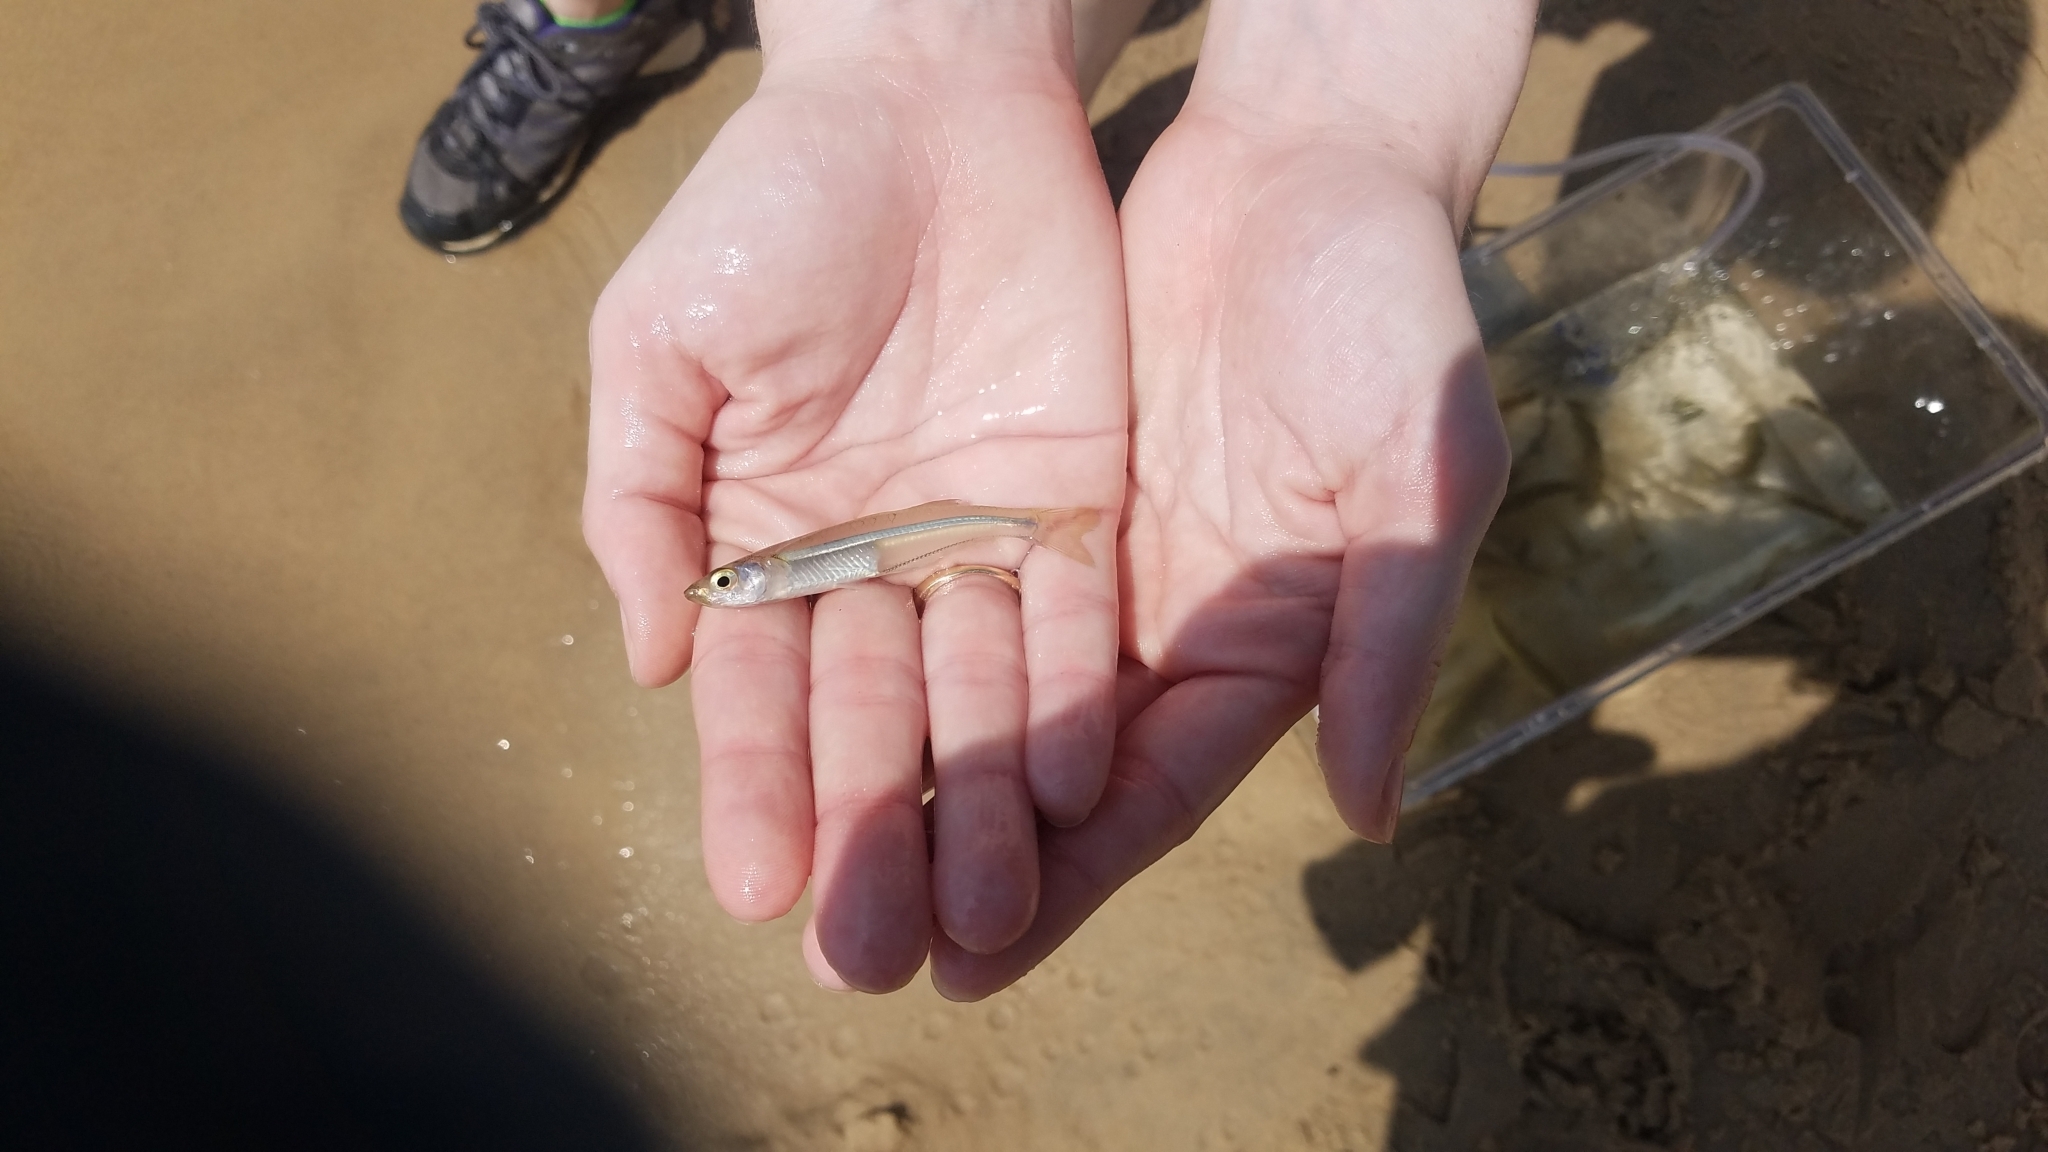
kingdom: Animalia
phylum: Chordata
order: Atheriniformes
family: Atherinopsidae
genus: Menidia
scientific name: Menidia menidia
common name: Atlantic silverside
